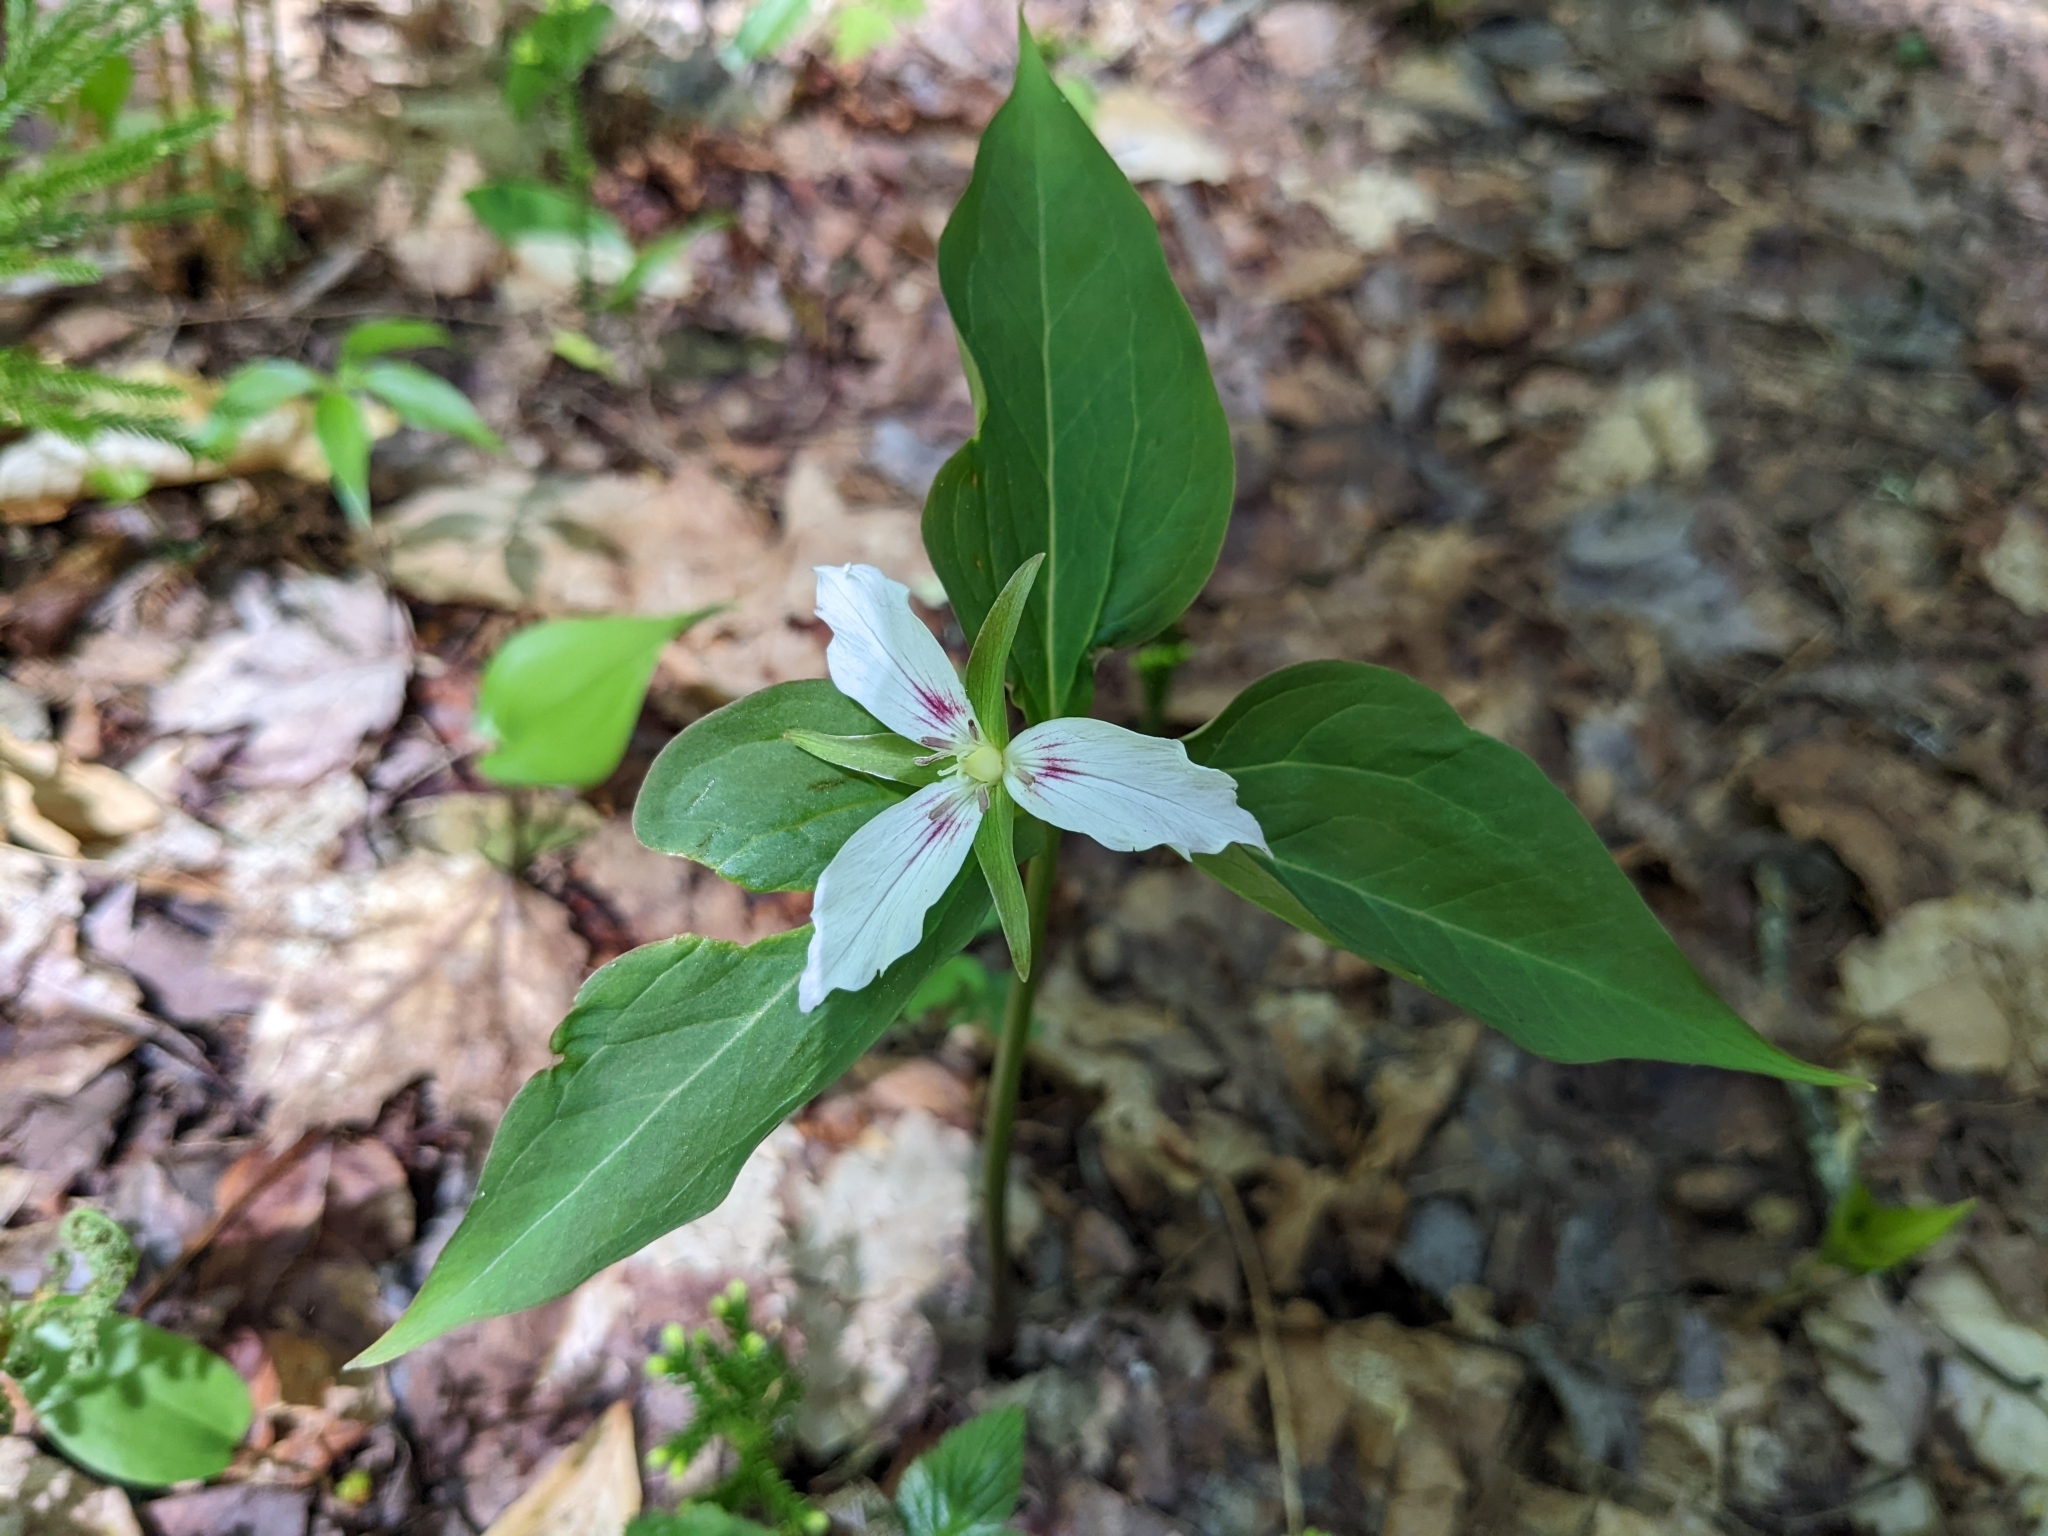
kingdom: Plantae
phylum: Tracheophyta
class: Liliopsida
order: Liliales
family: Melanthiaceae
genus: Trillium
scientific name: Trillium undulatum
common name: Paint trillium
